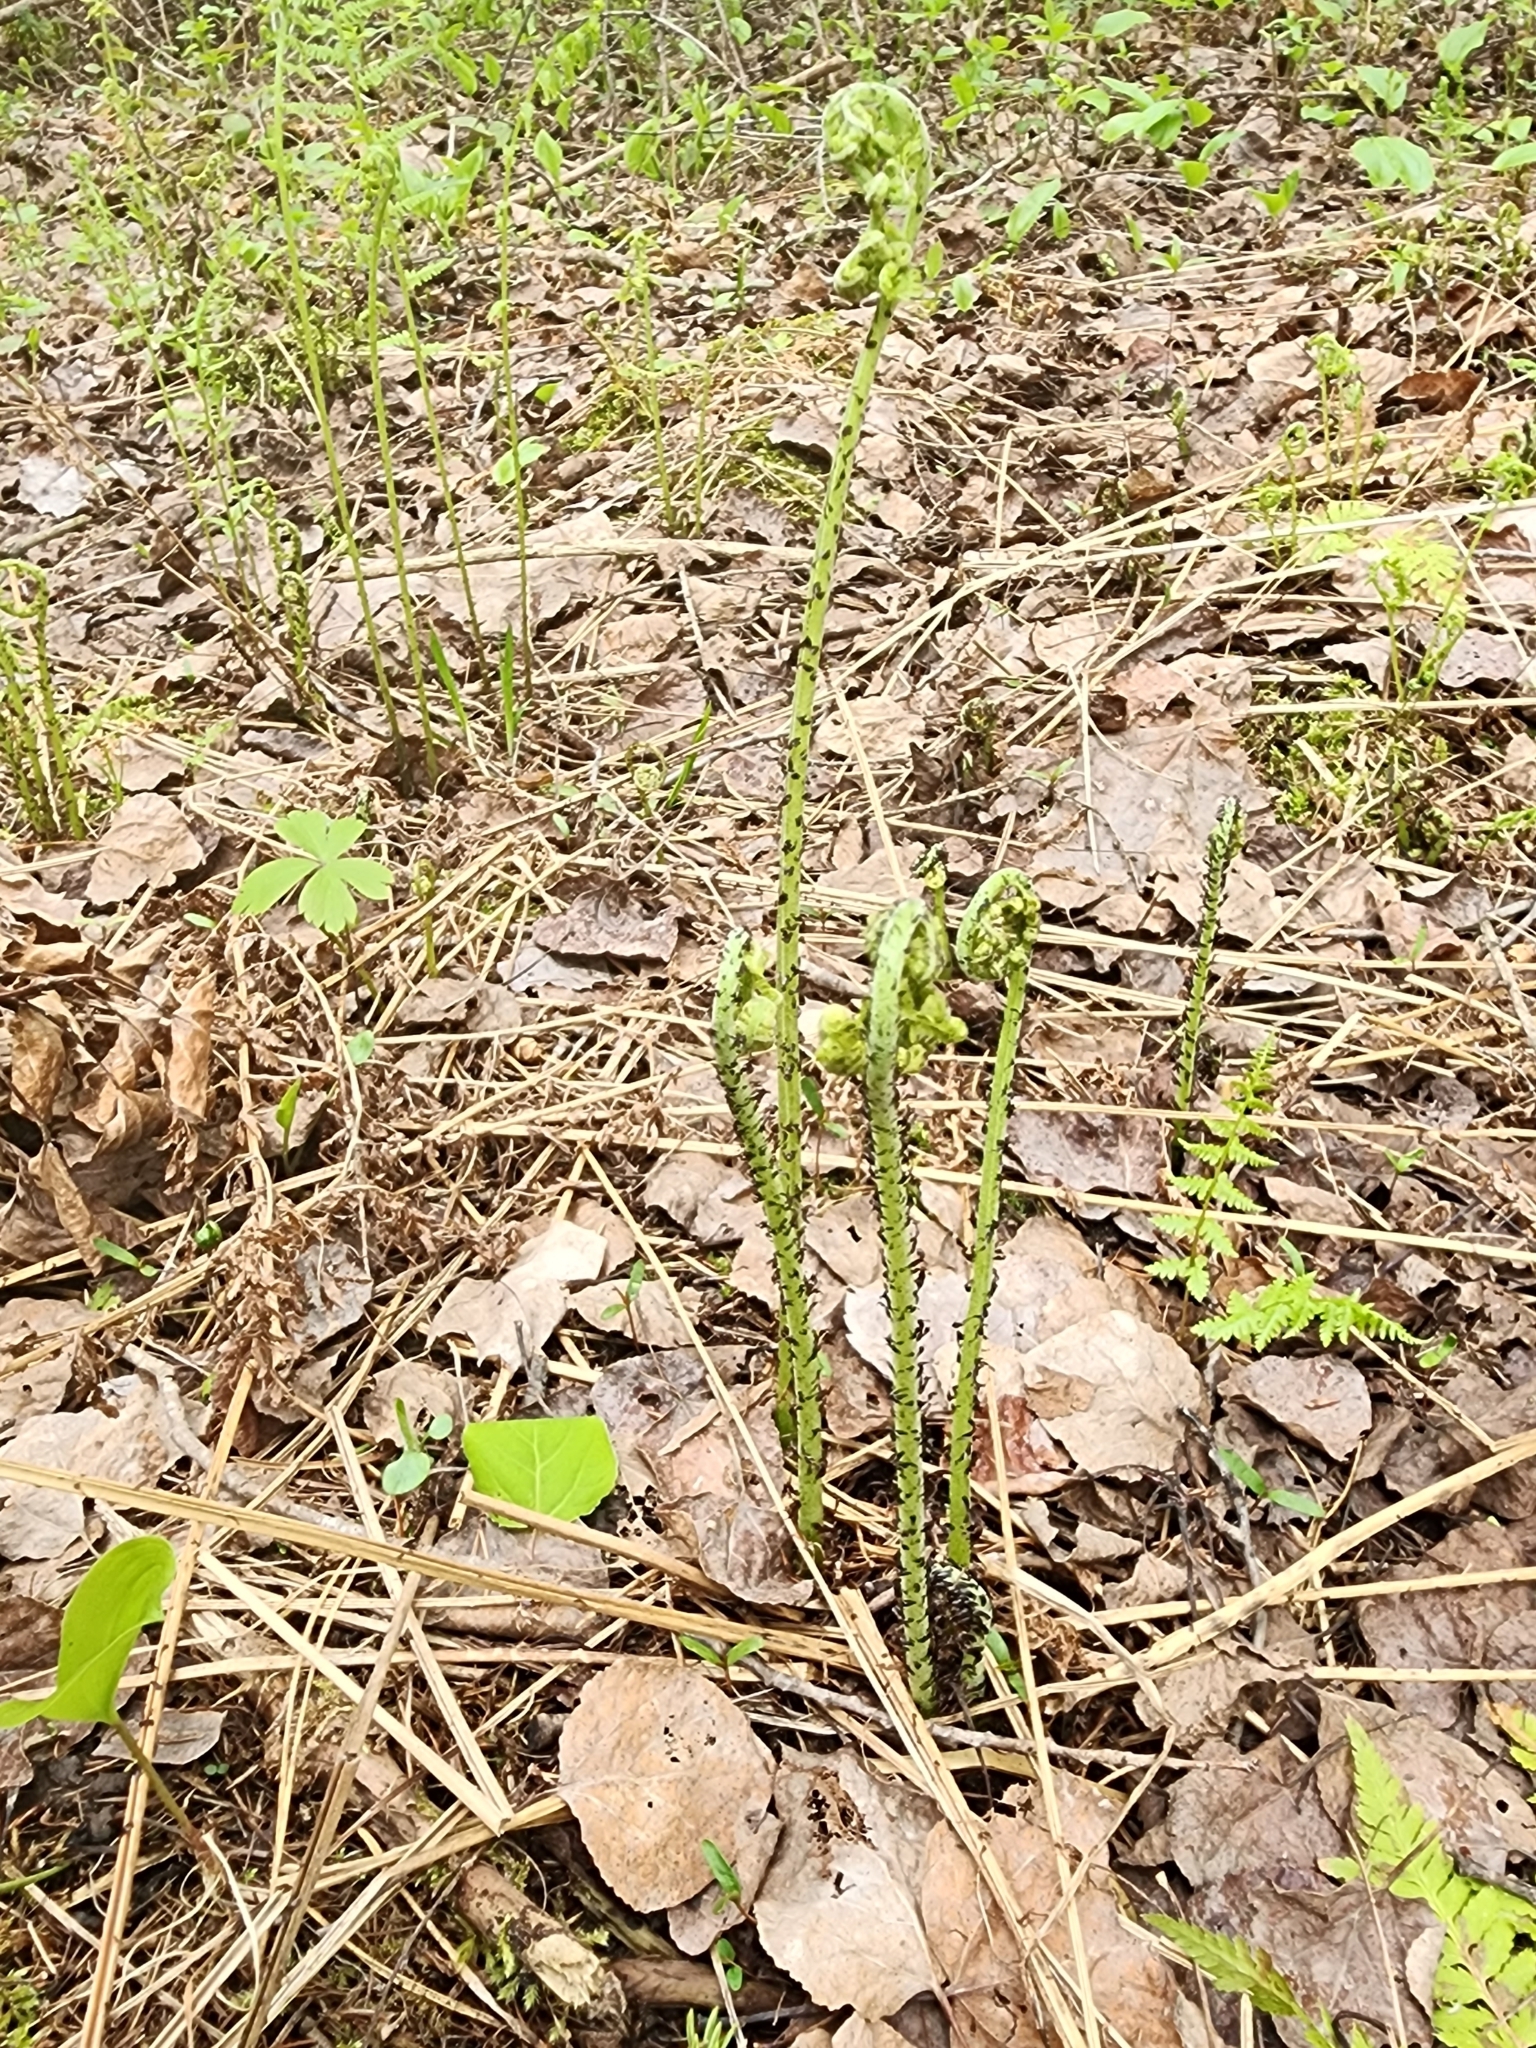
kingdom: Plantae
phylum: Tracheophyta
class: Polypodiopsida
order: Polypodiales
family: Athyriaceae
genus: Athyrium
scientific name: Athyrium angustum
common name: Northern lady fern
